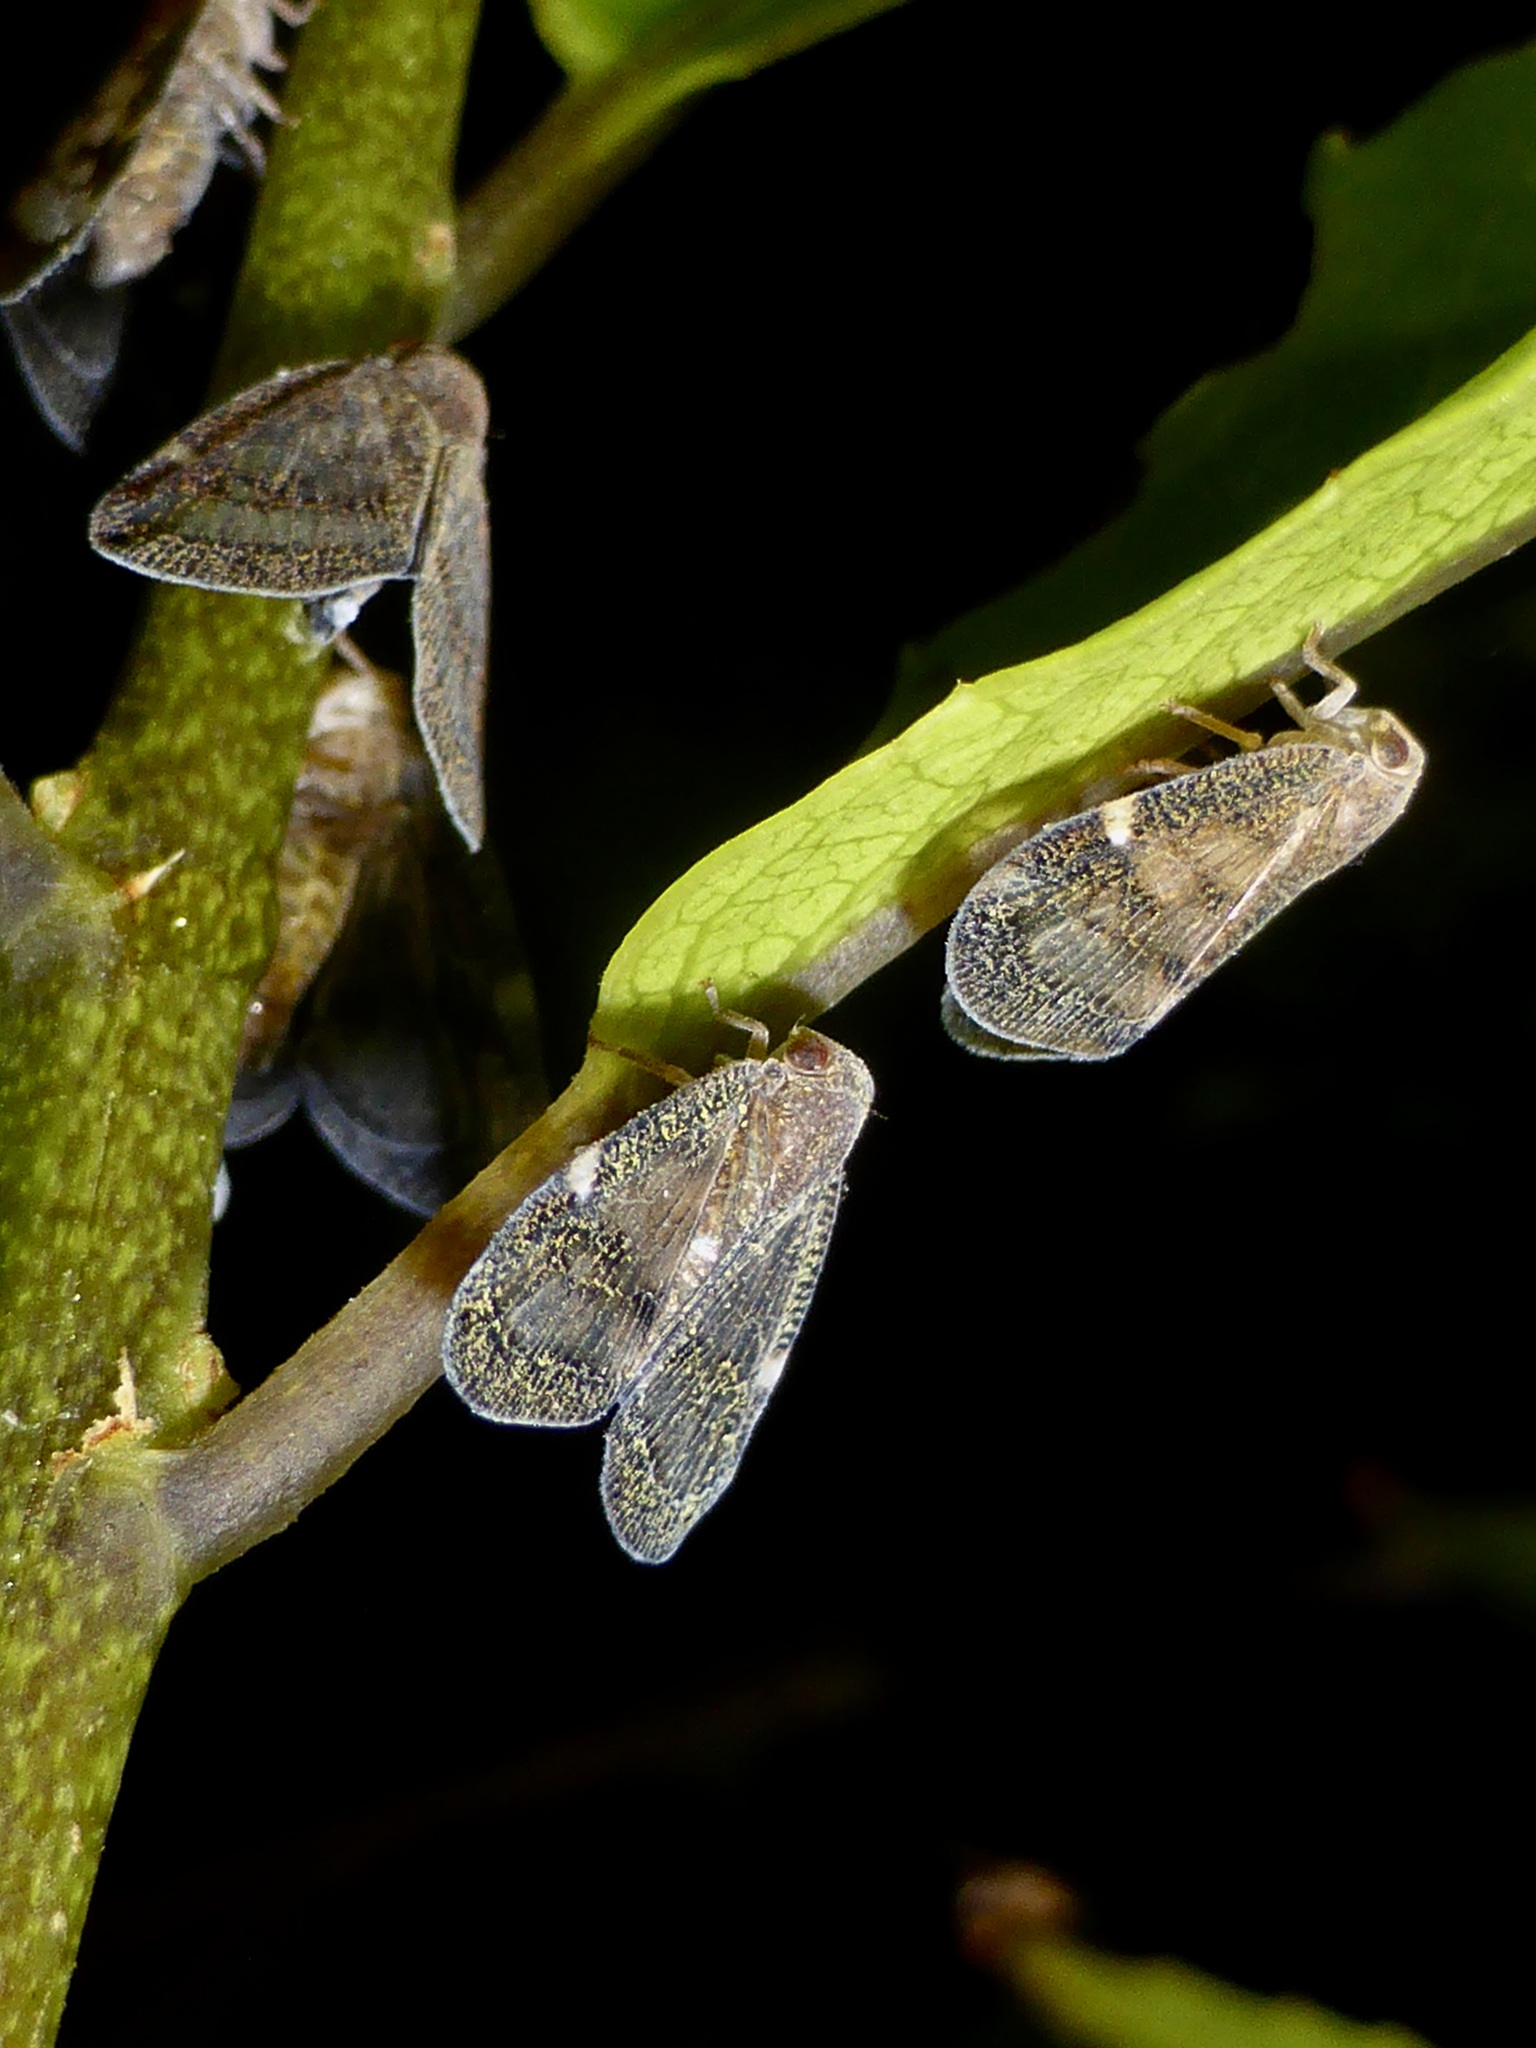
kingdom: Animalia
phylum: Arthropoda
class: Insecta
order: Hemiptera
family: Ricaniidae
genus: Scolypopa
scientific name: Scolypopa australis
